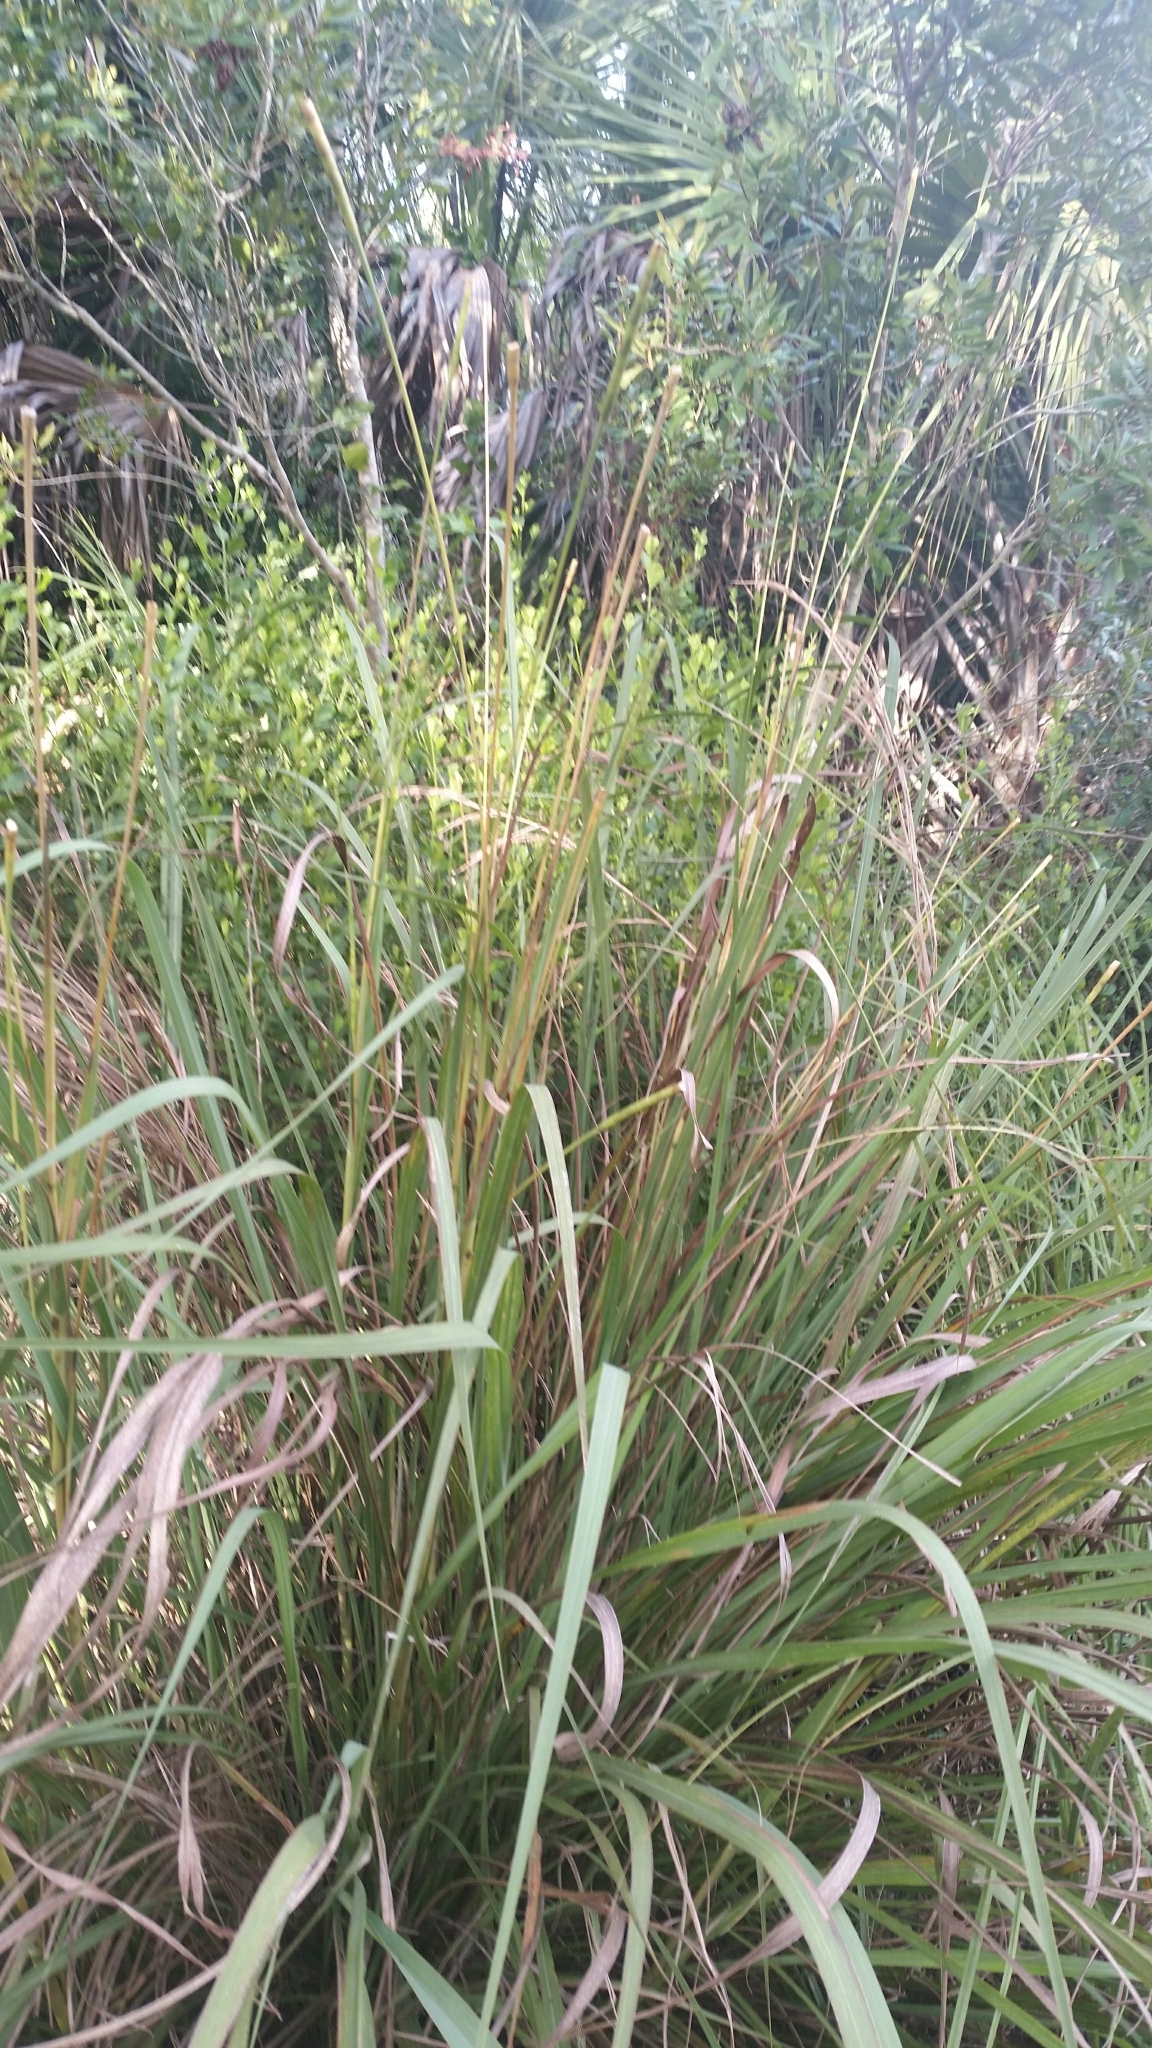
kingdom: Plantae
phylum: Tracheophyta
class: Liliopsida
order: Poales
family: Poaceae
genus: Tripsacum
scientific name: Tripsacum dactyloides
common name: Buffalo-grass
